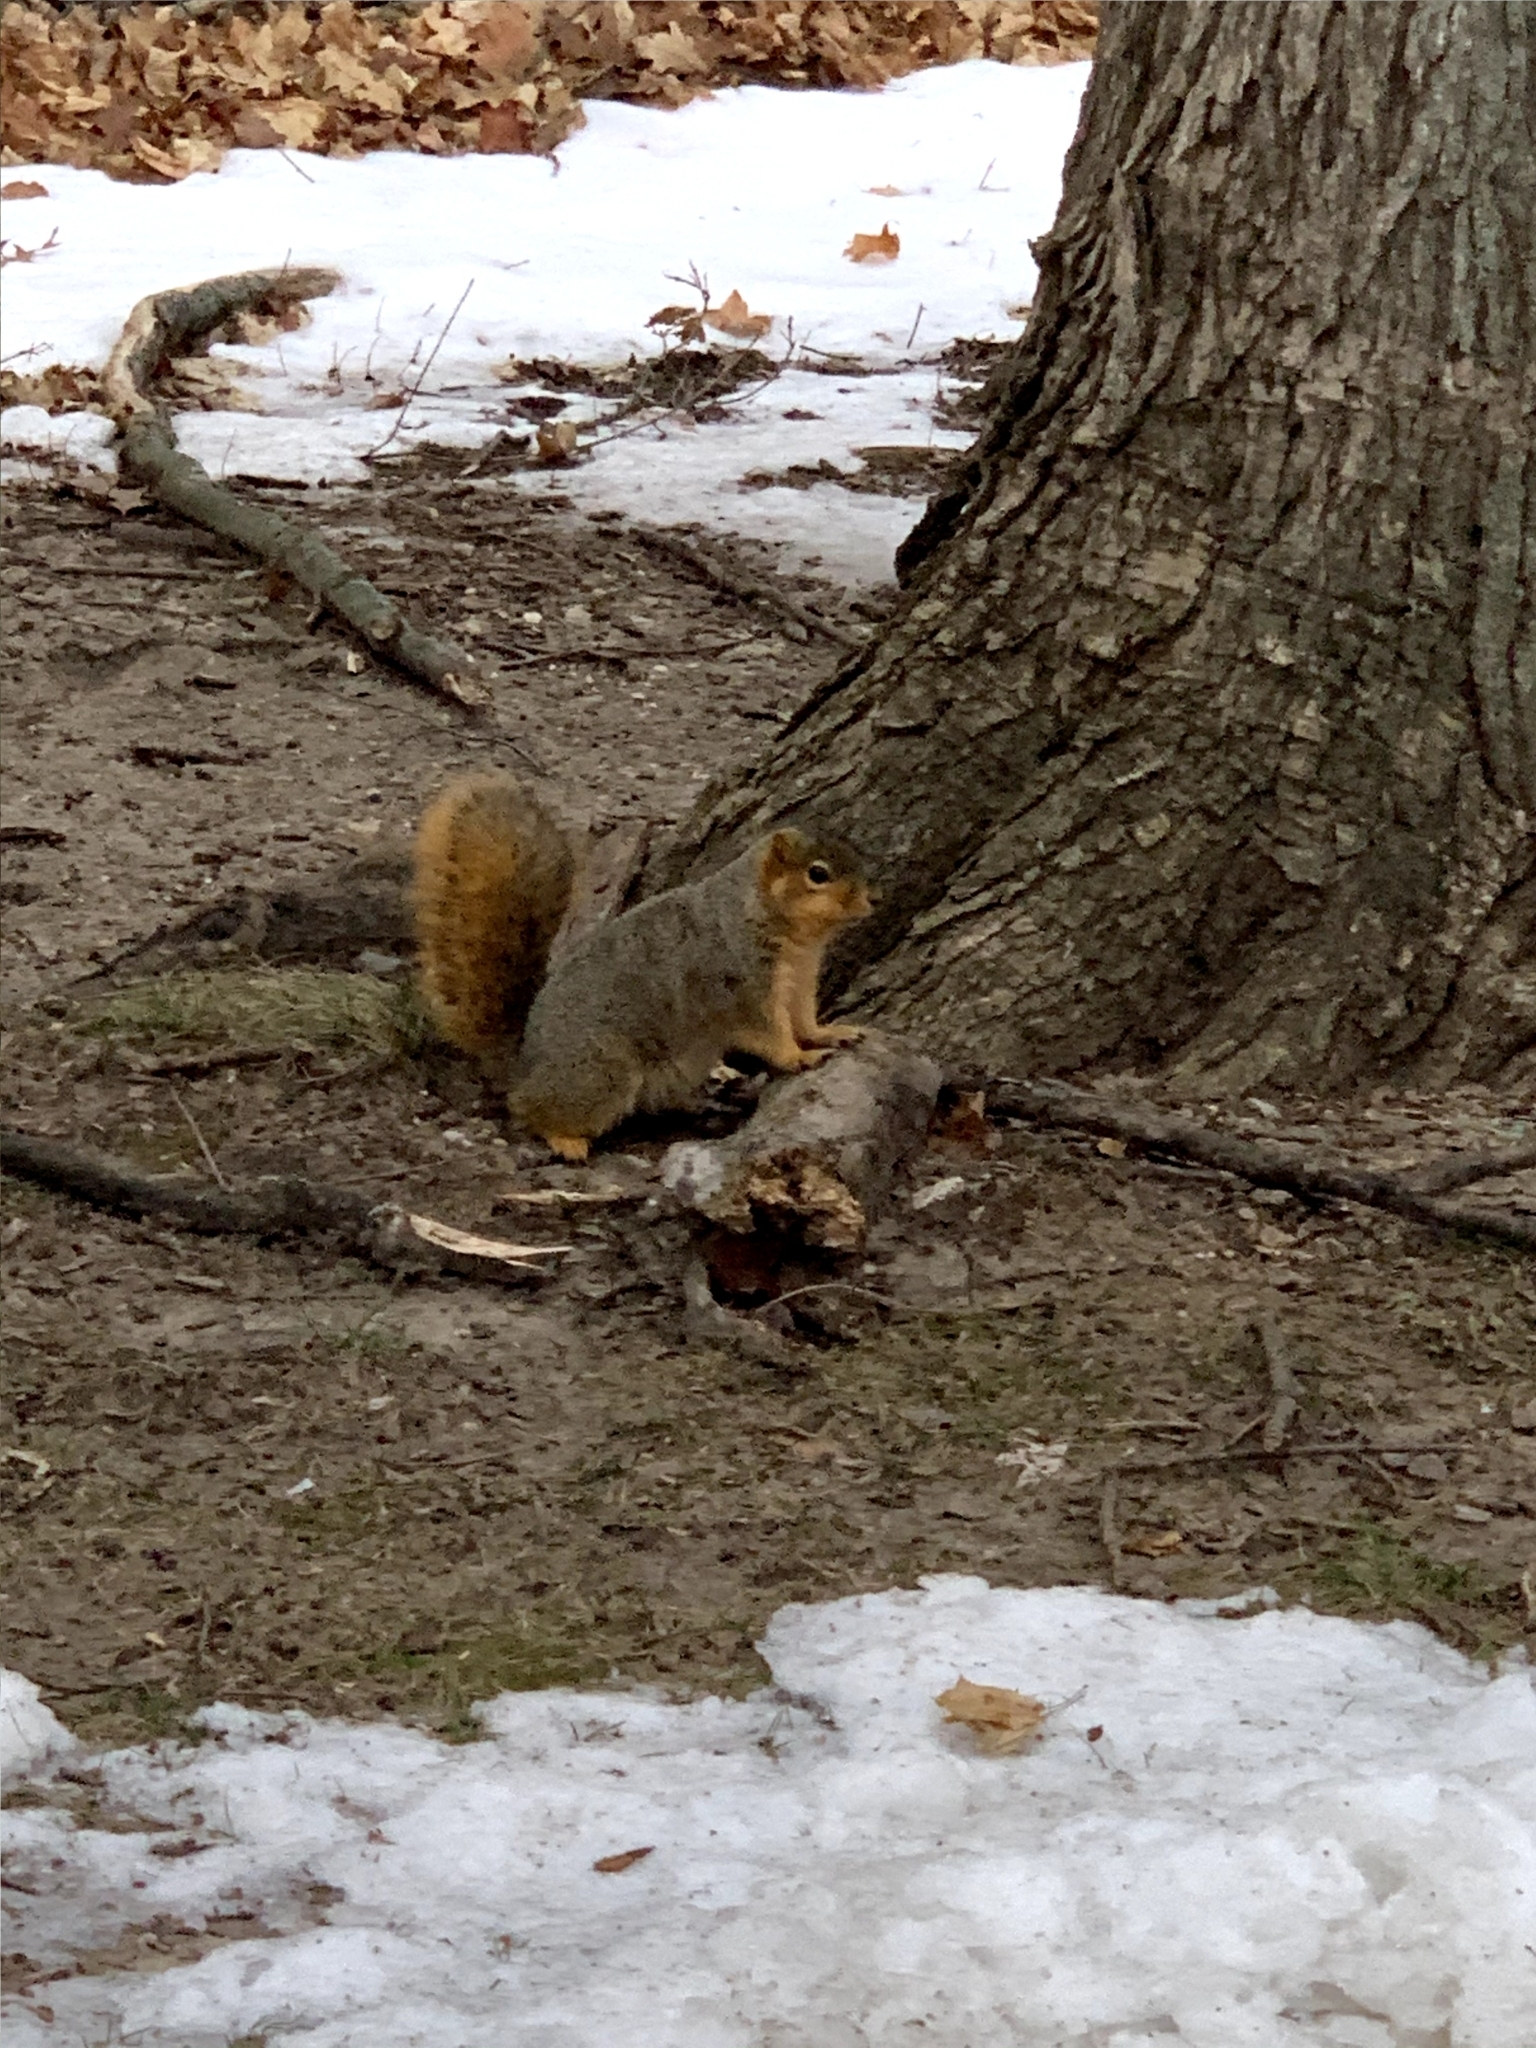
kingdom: Animalia
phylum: Chordata
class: Mammalia
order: Rodentia
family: Sciuridae
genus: Sciurus
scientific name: Sciurus niger
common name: Fox squirrel
